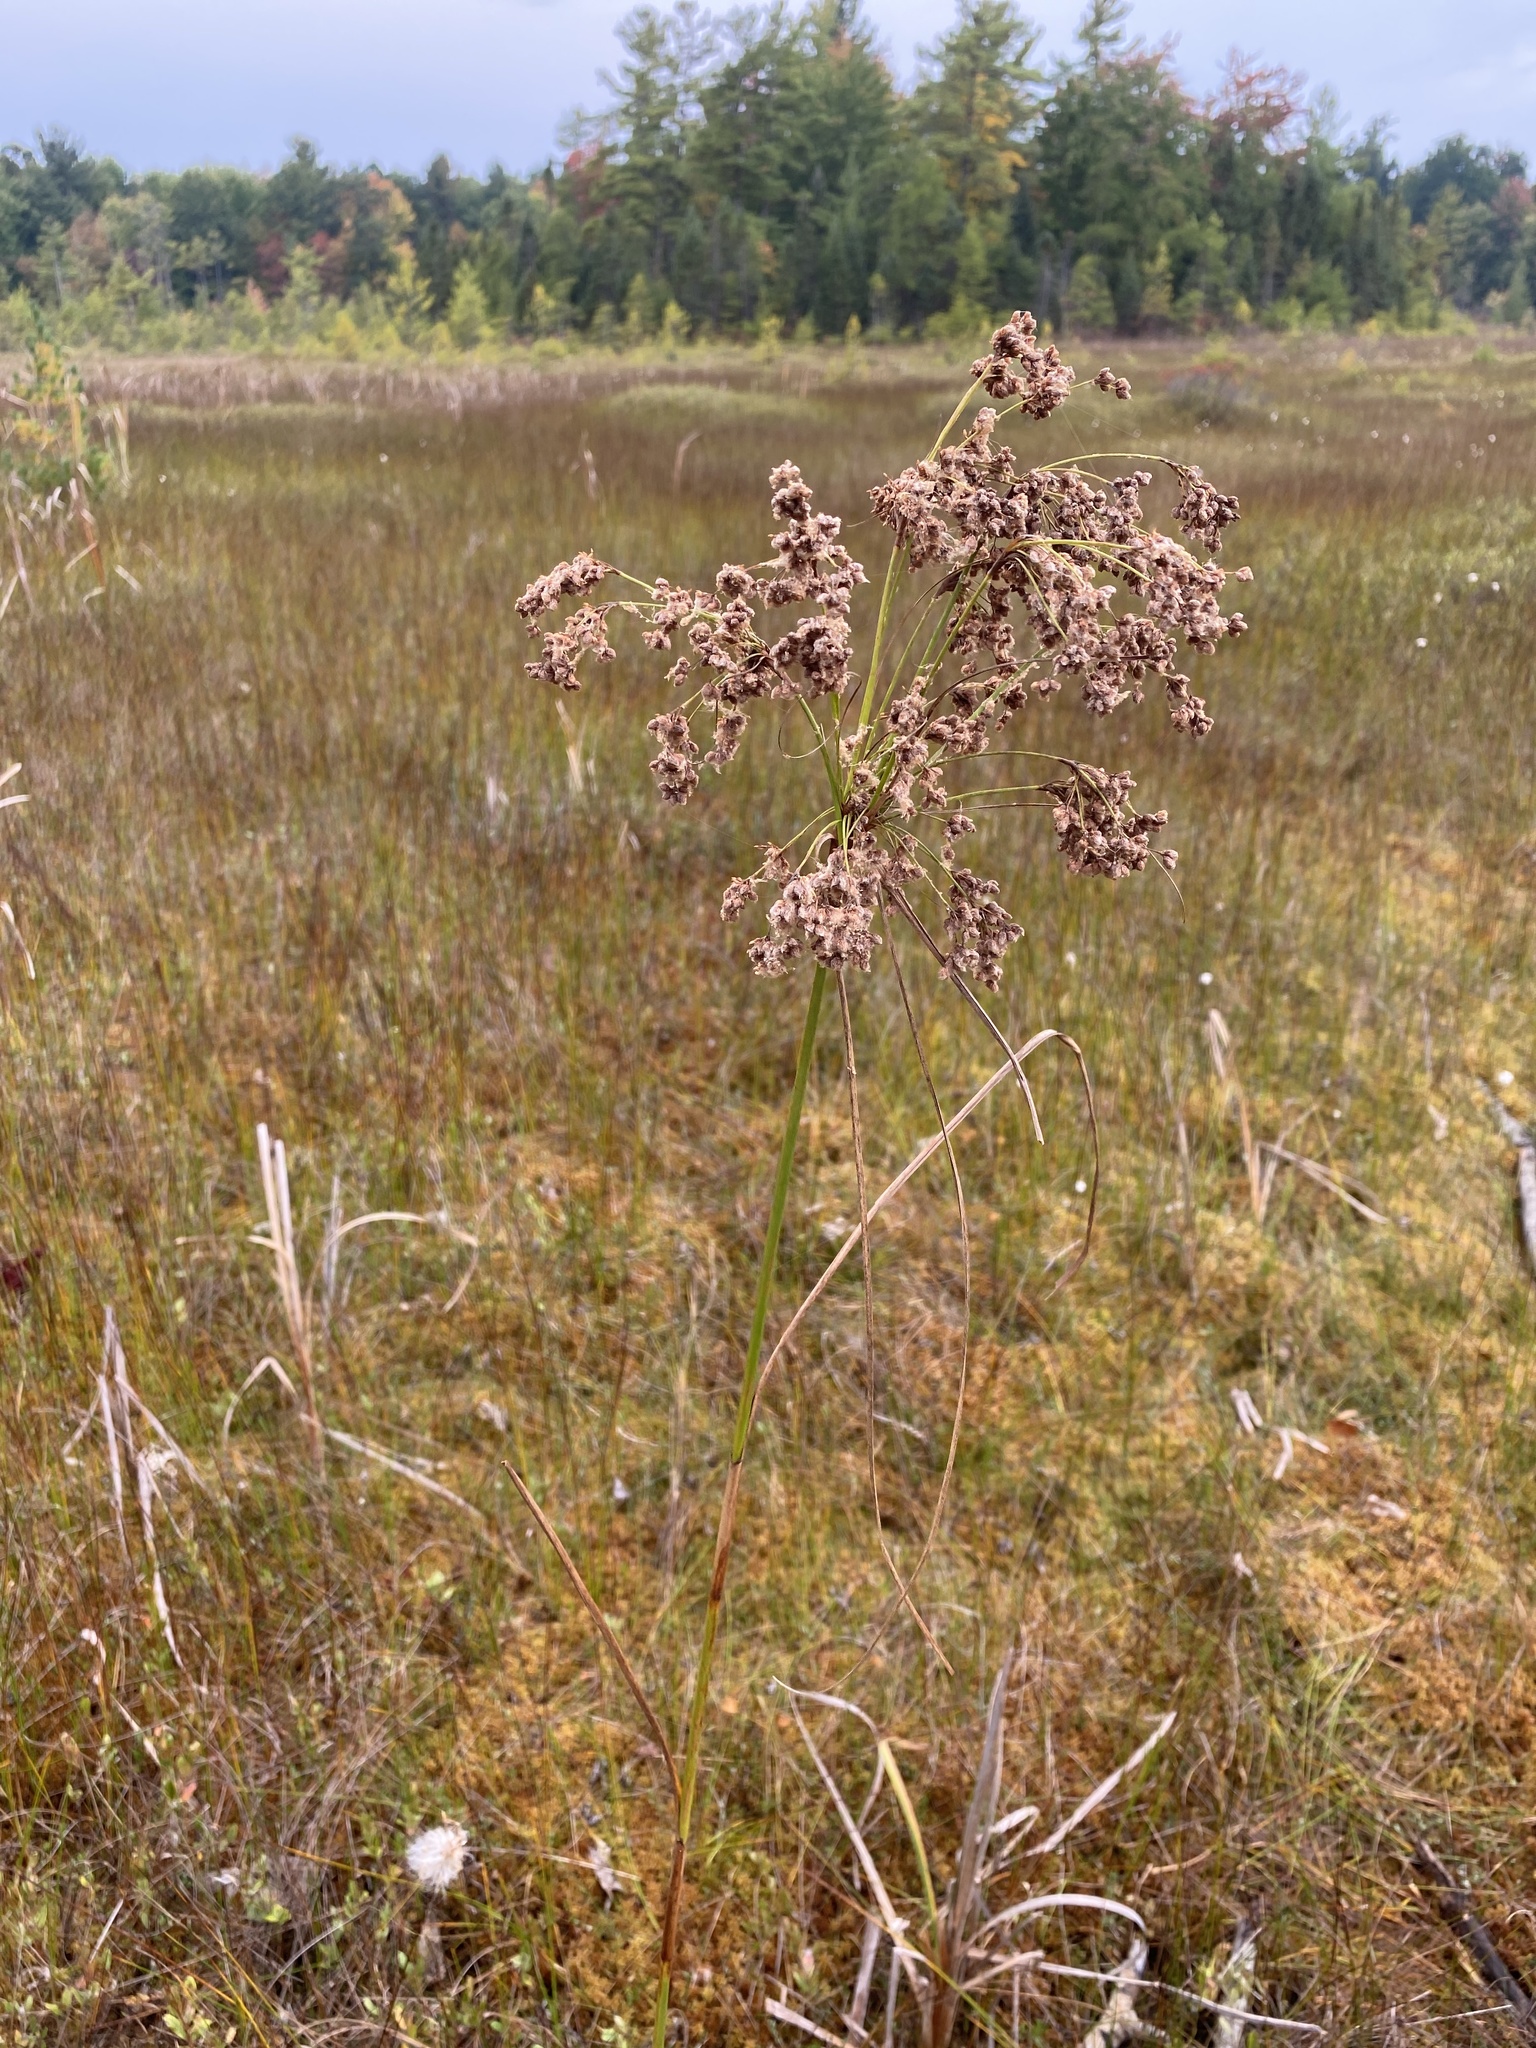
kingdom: Plantae
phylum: Tracheophyta
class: Liliopsida
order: Poales
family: Cyperaceae
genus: Scirpus
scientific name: Scirpus cyperinus
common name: Black-sheathed bulrush
